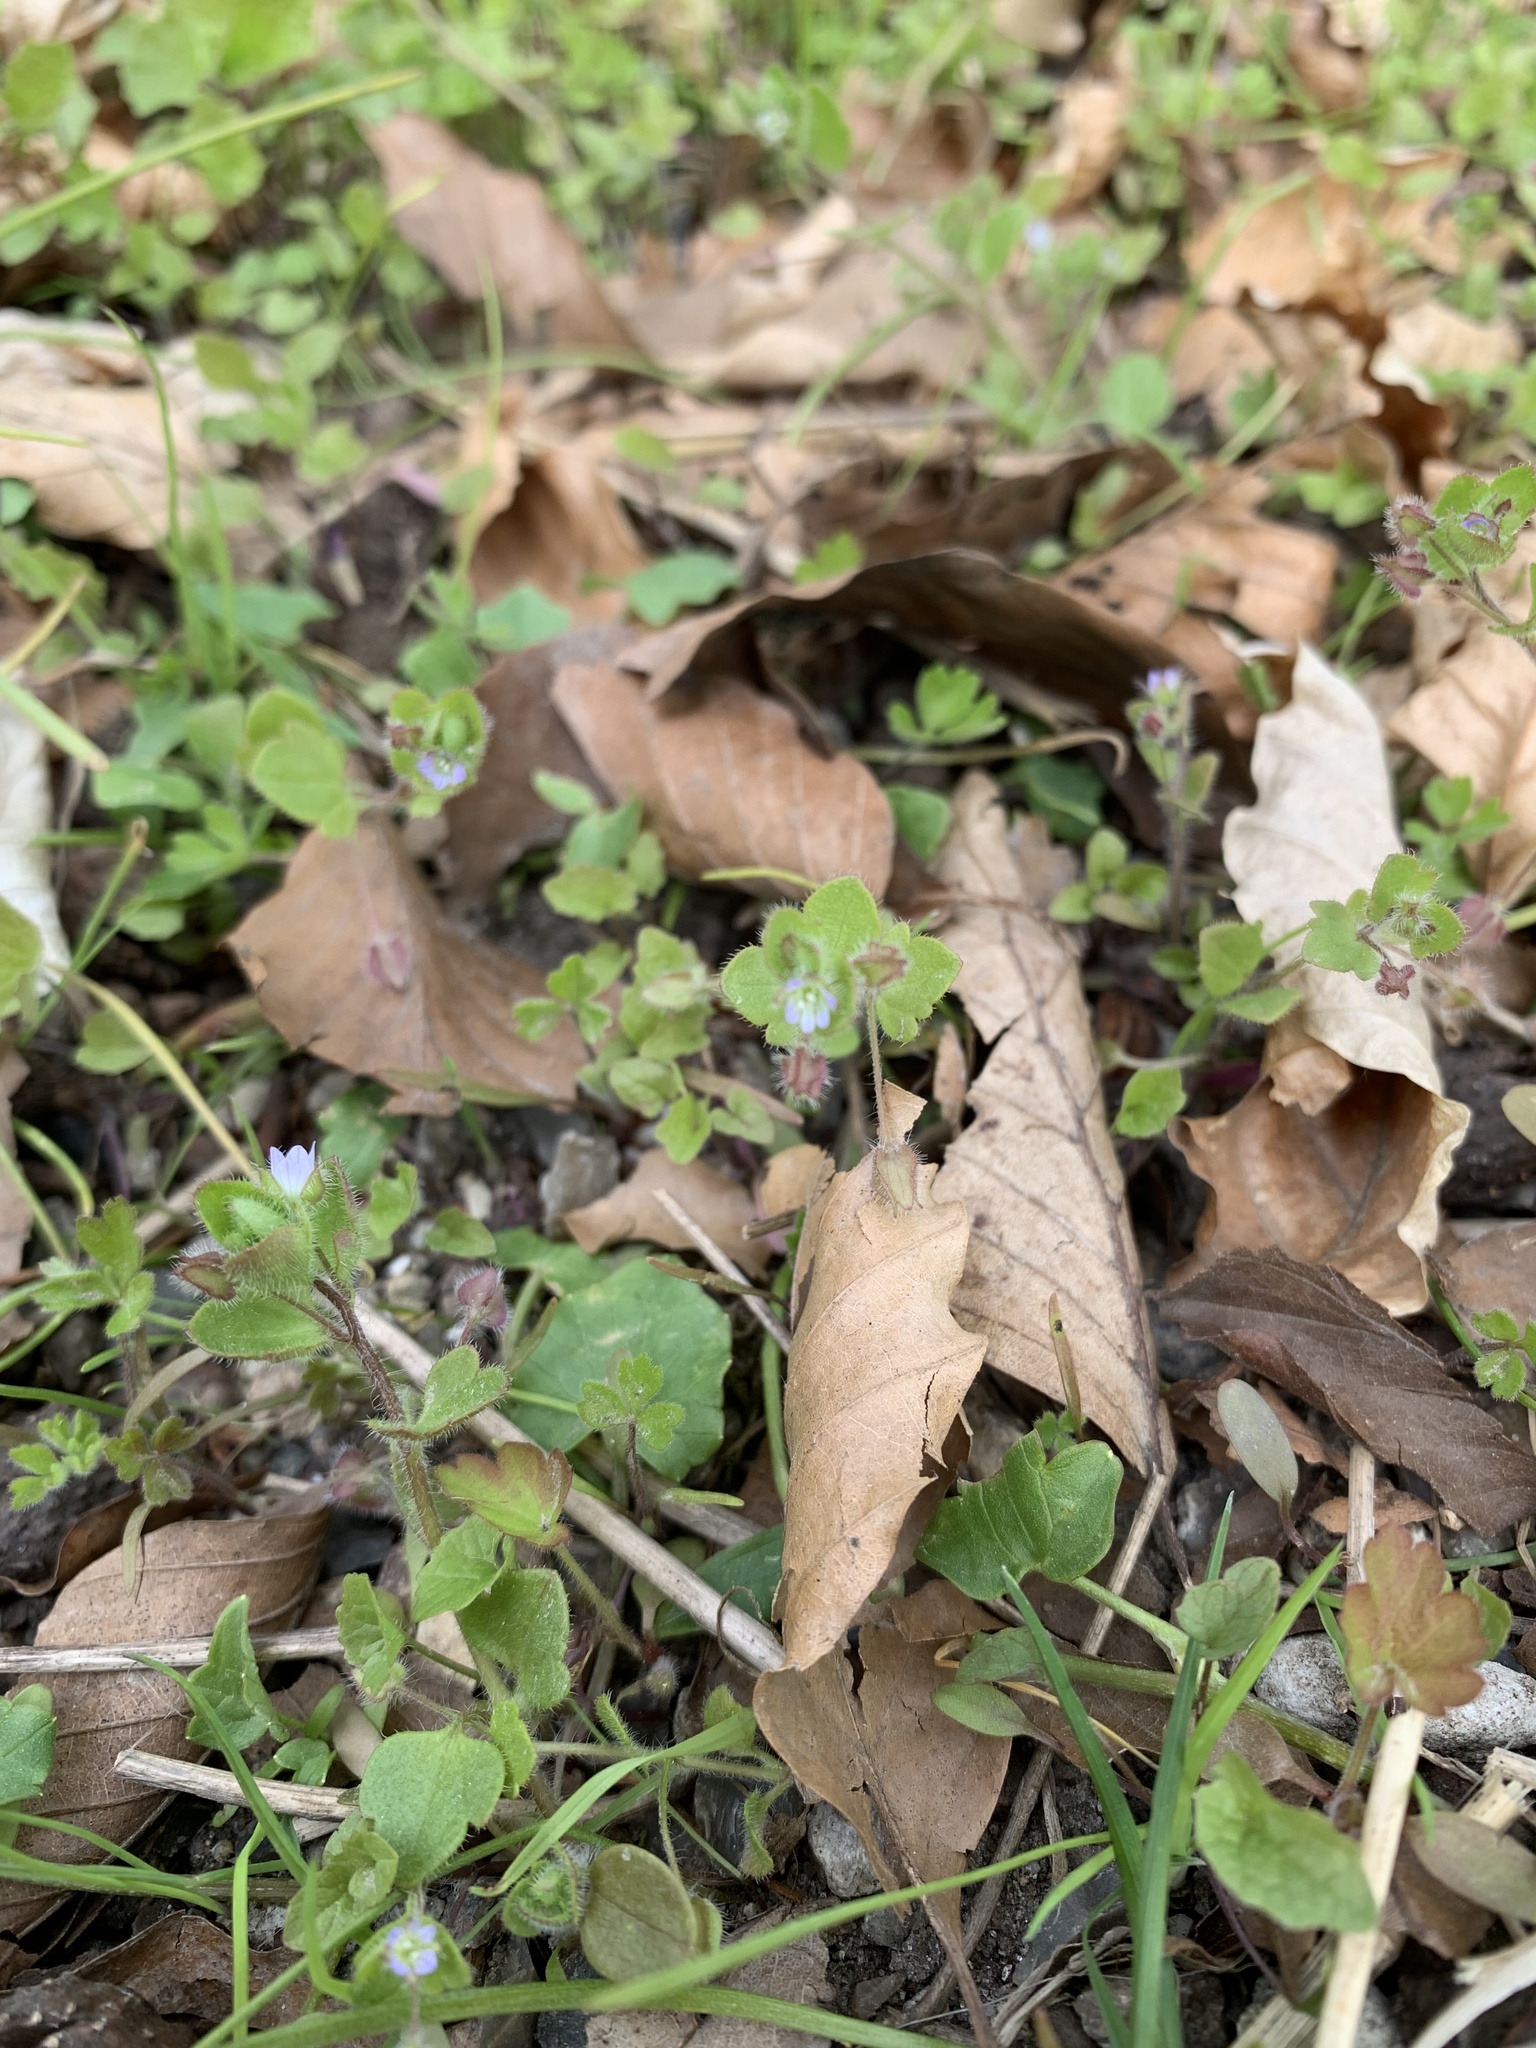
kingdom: Plantae
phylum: Tracheophyta
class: Magnoliopsida
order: Lamiales
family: Plantaginaceae
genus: Veronica
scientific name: Veronica sublobata
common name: False ivy-leaved speedwell
